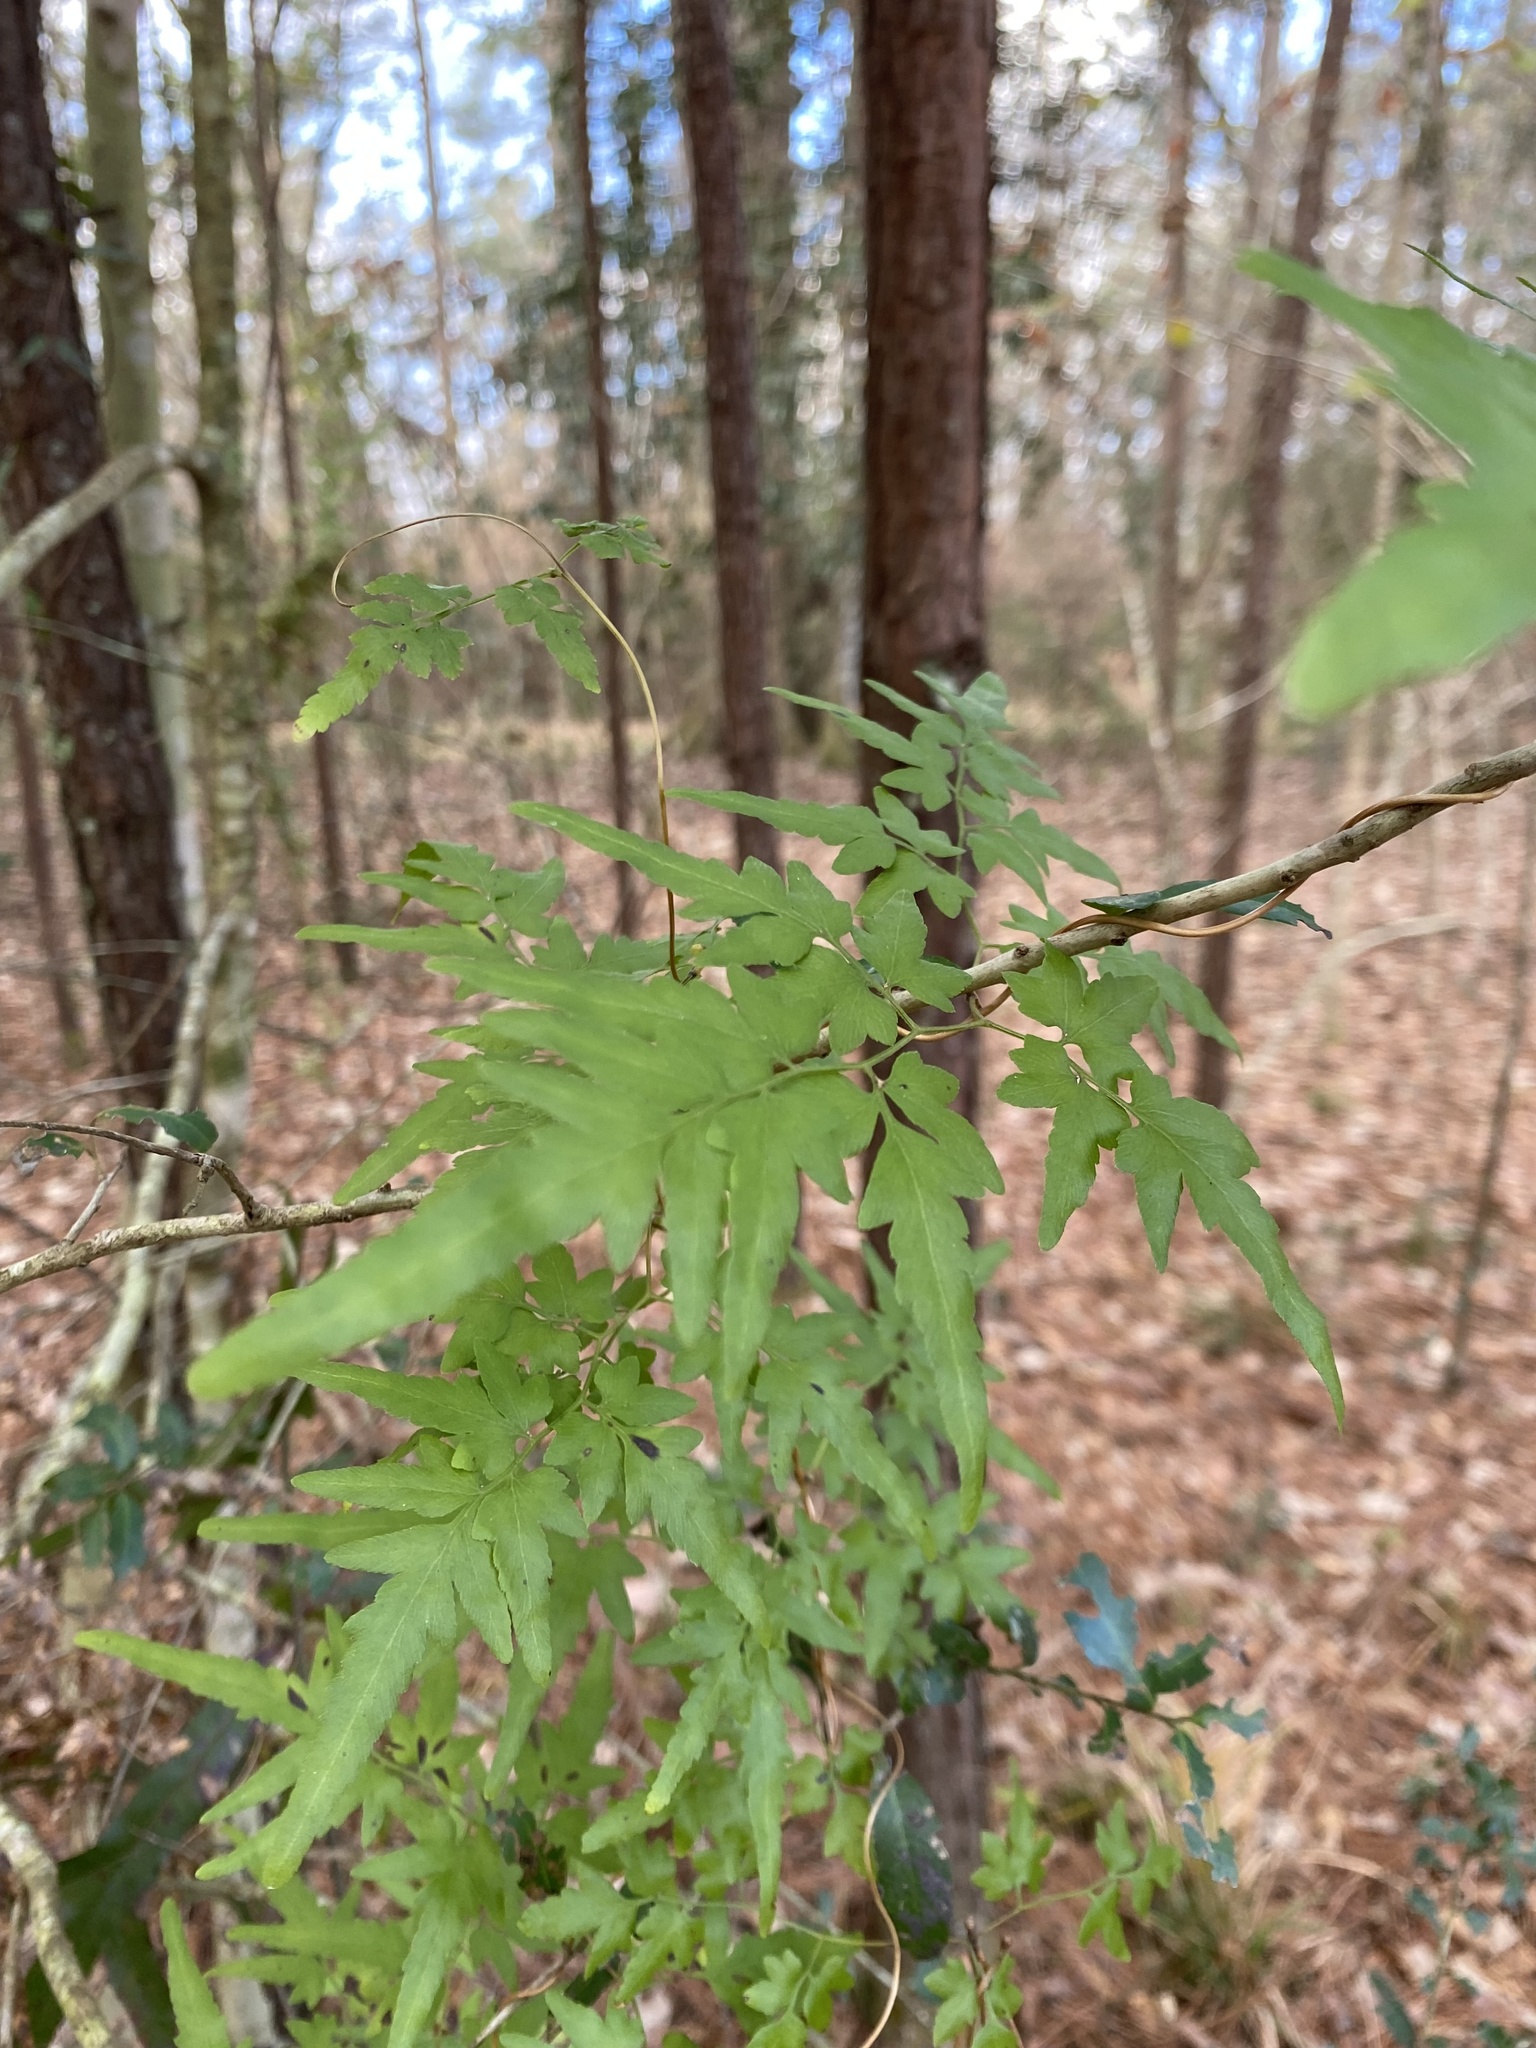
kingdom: Plantae
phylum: Tracheophyta
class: Polypodiopsida
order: Schizaeales
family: Lygodiaceae
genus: Lygodium
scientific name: Lygodium japonicum
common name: Japanese climbing fern
